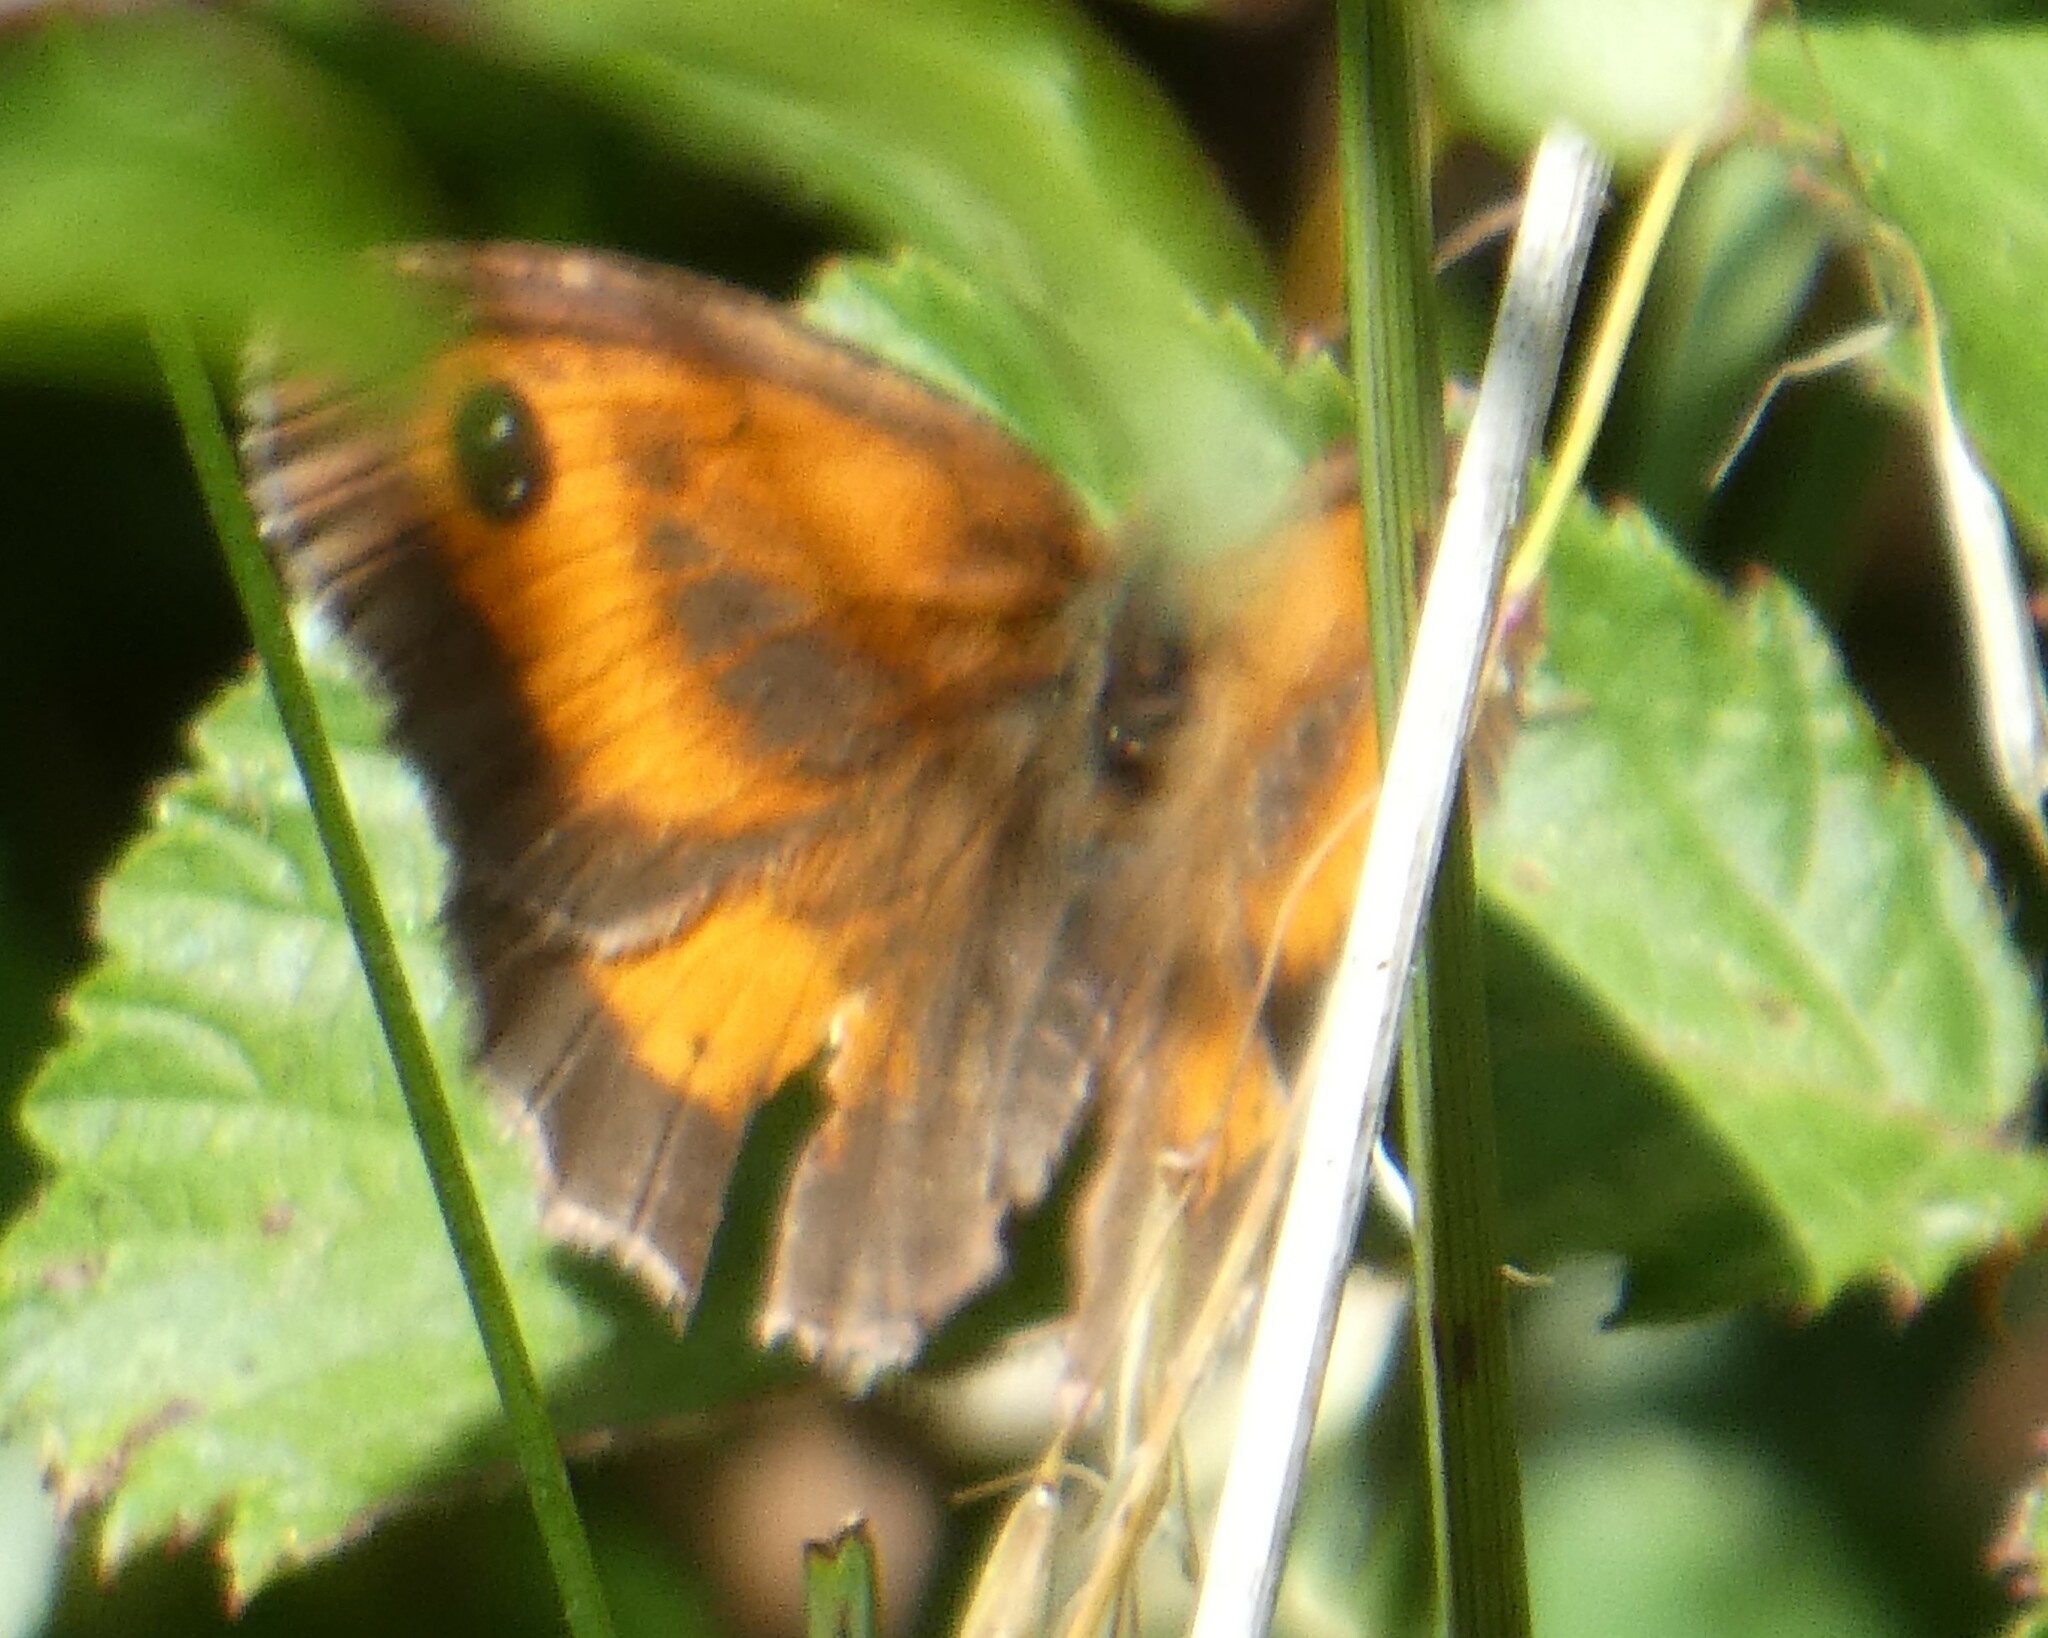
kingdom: Animalia
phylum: Arthropoda
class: Insecta
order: Lepidoptera
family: Nymphalidae
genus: Pyronia
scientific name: Pyronia tithonus
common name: Gatekeeper
